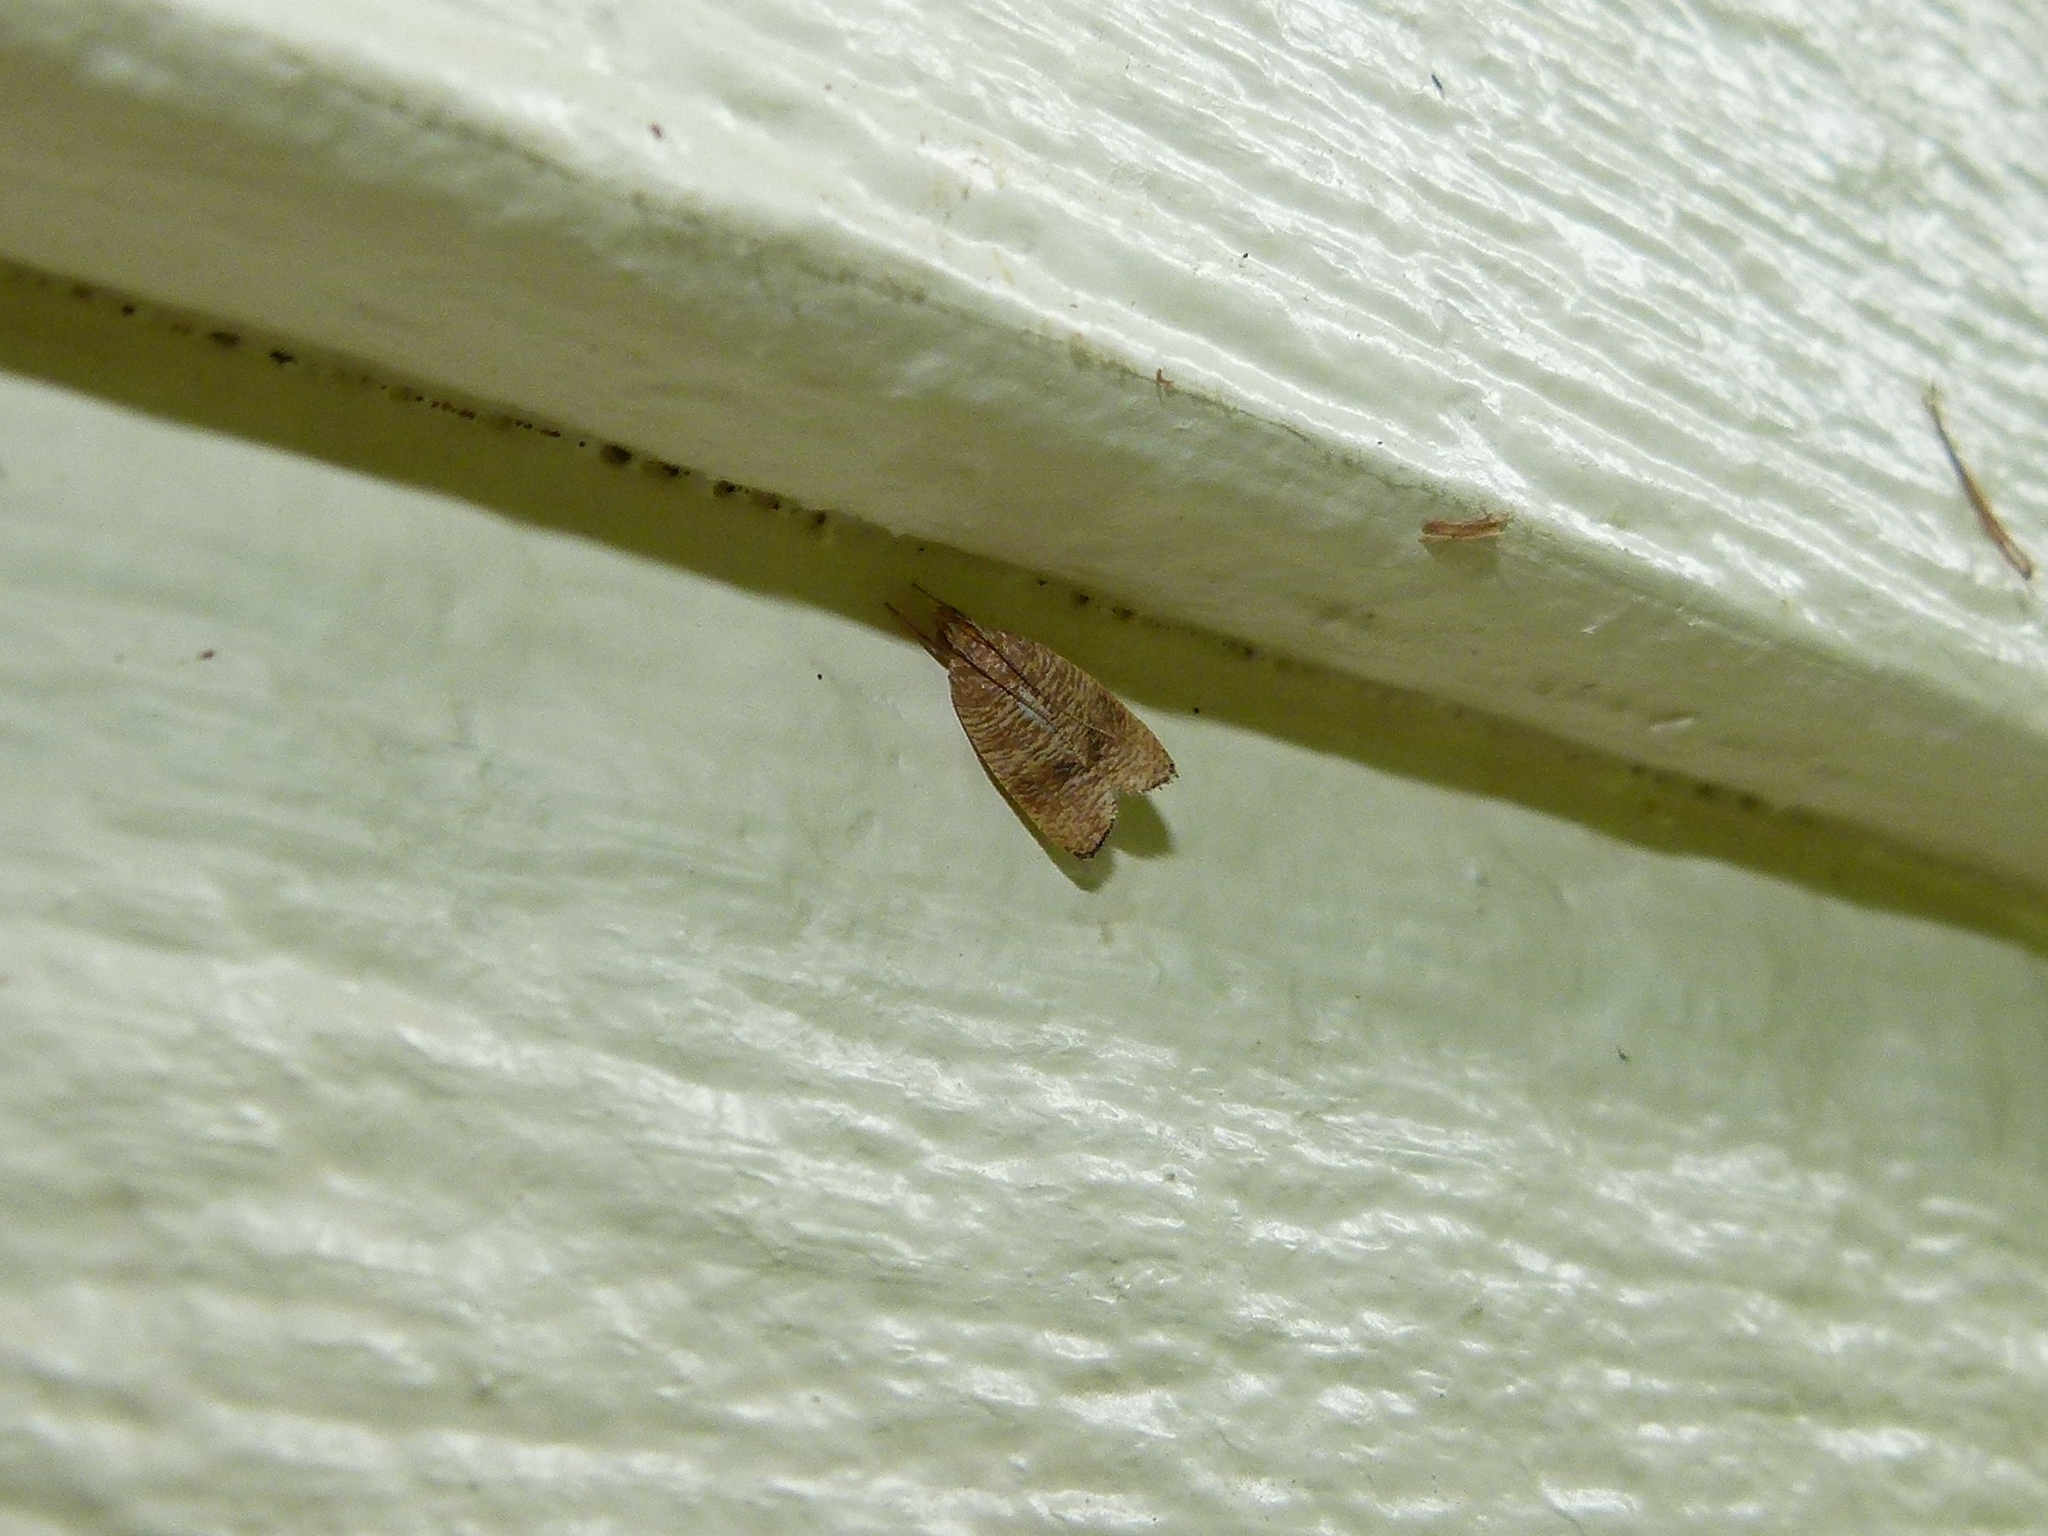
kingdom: Animalia
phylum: Arthropoda
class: Insecta
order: Lepidoptera
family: Depressariidae
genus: Psilocorsis
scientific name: Psilocorsis cryptolechiella
